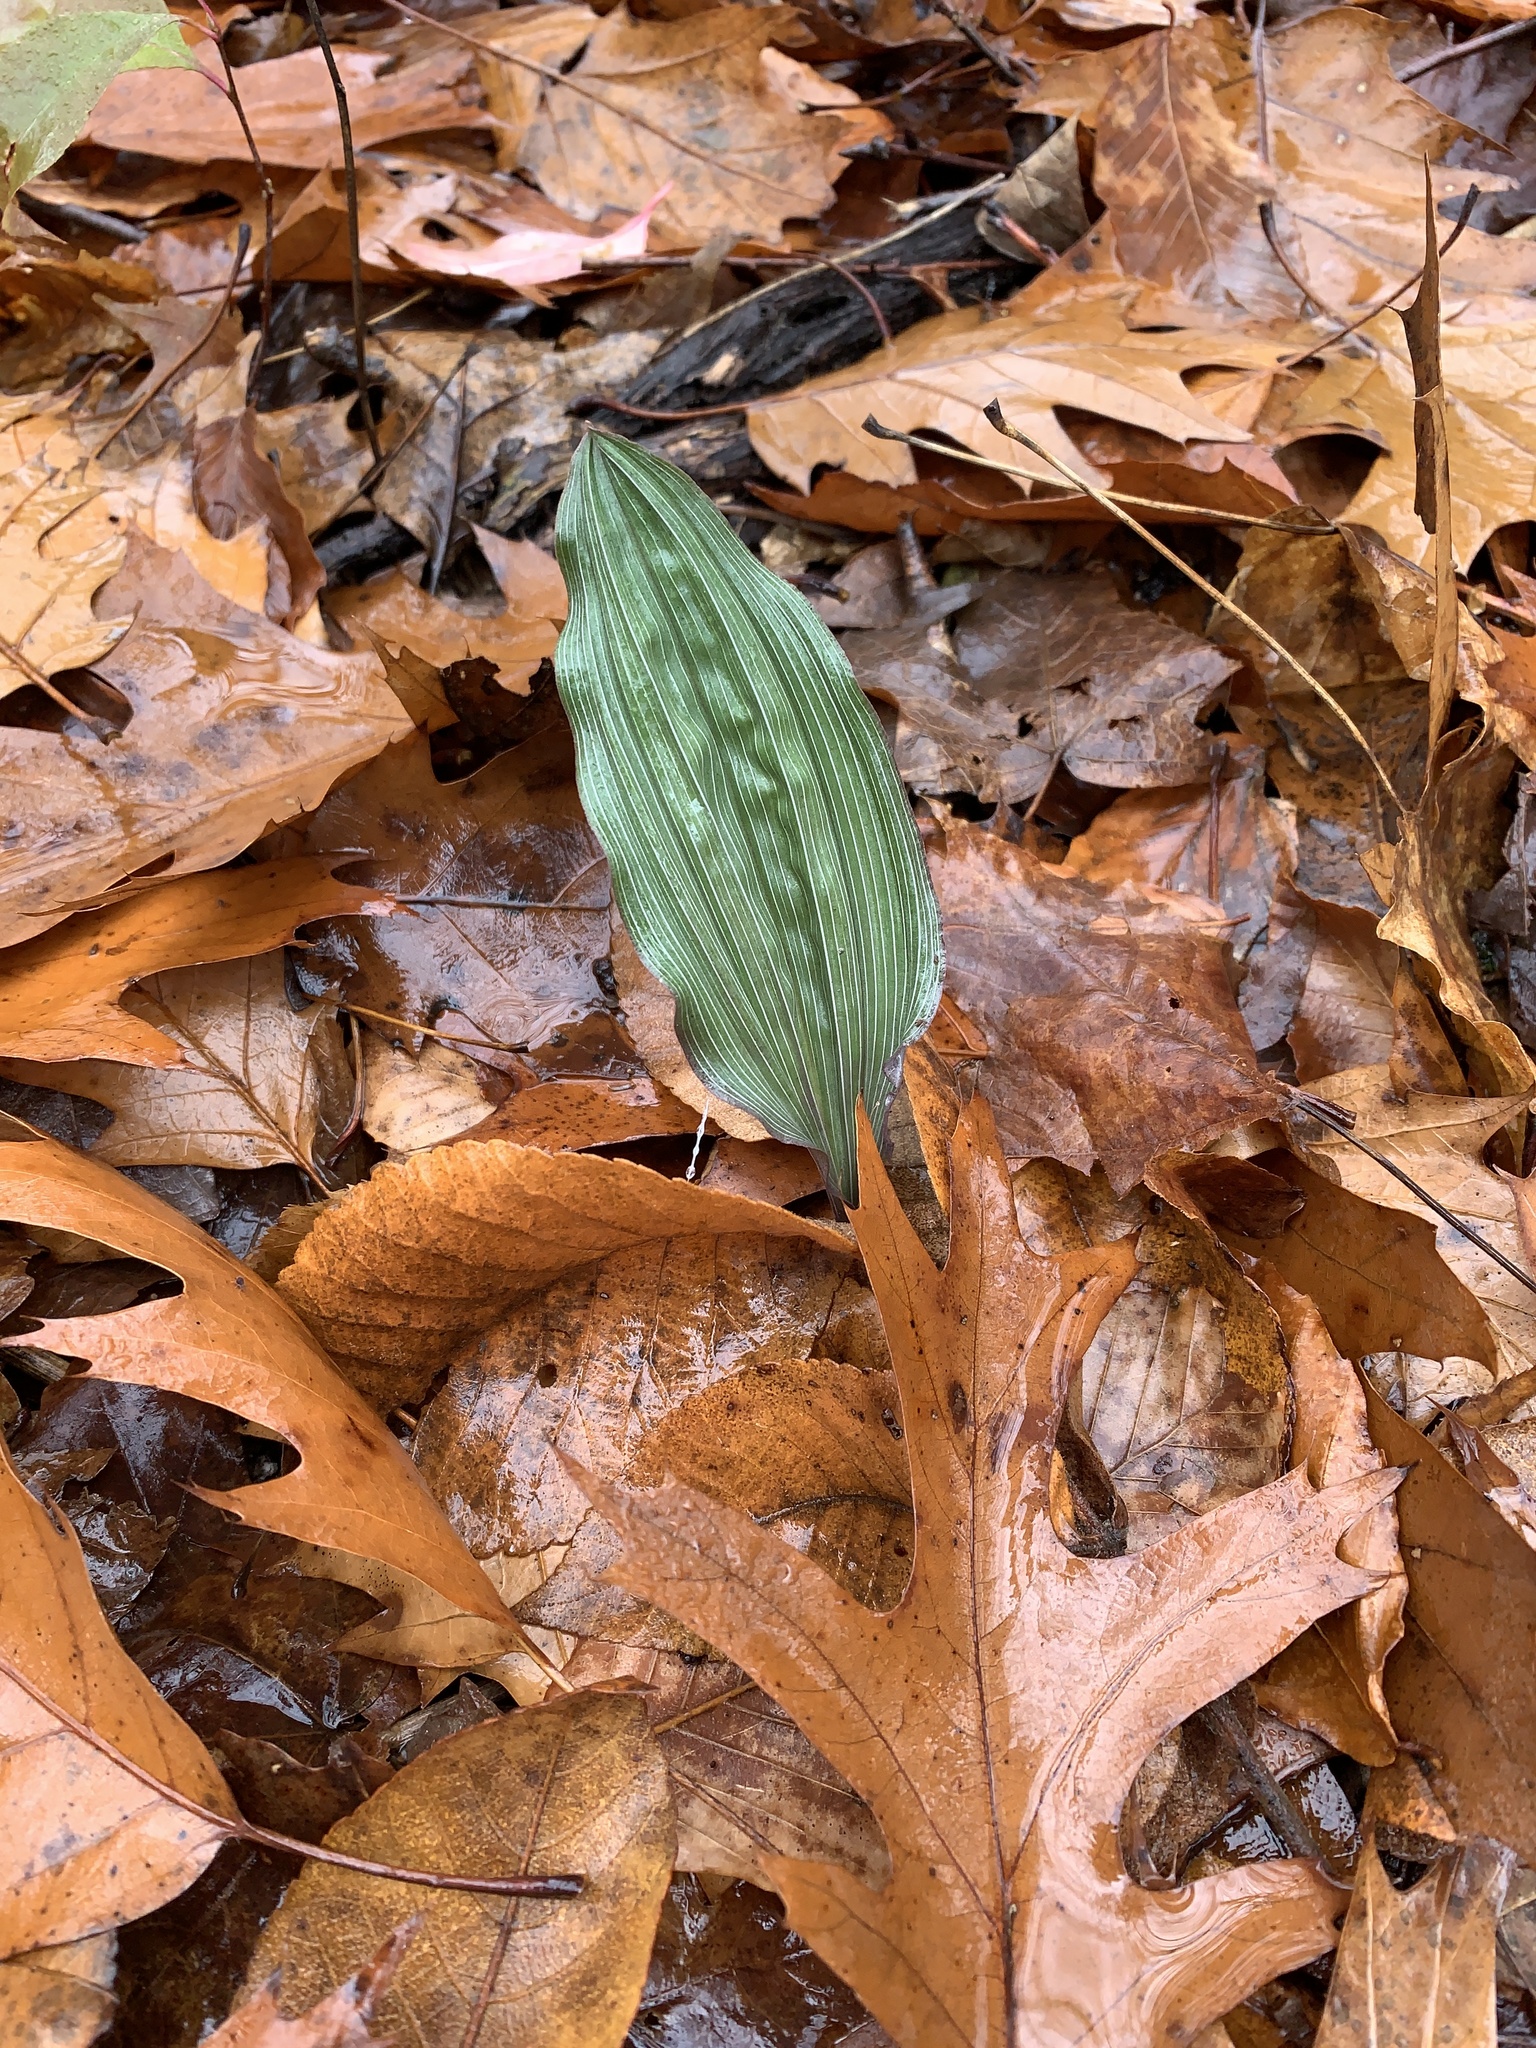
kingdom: Plantae
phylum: Tracheophyta
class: Liliopsida
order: Asparagales
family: Orchidaceae
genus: Aplectrum
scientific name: Aplectrum hyemale
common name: Adam-and-eve
